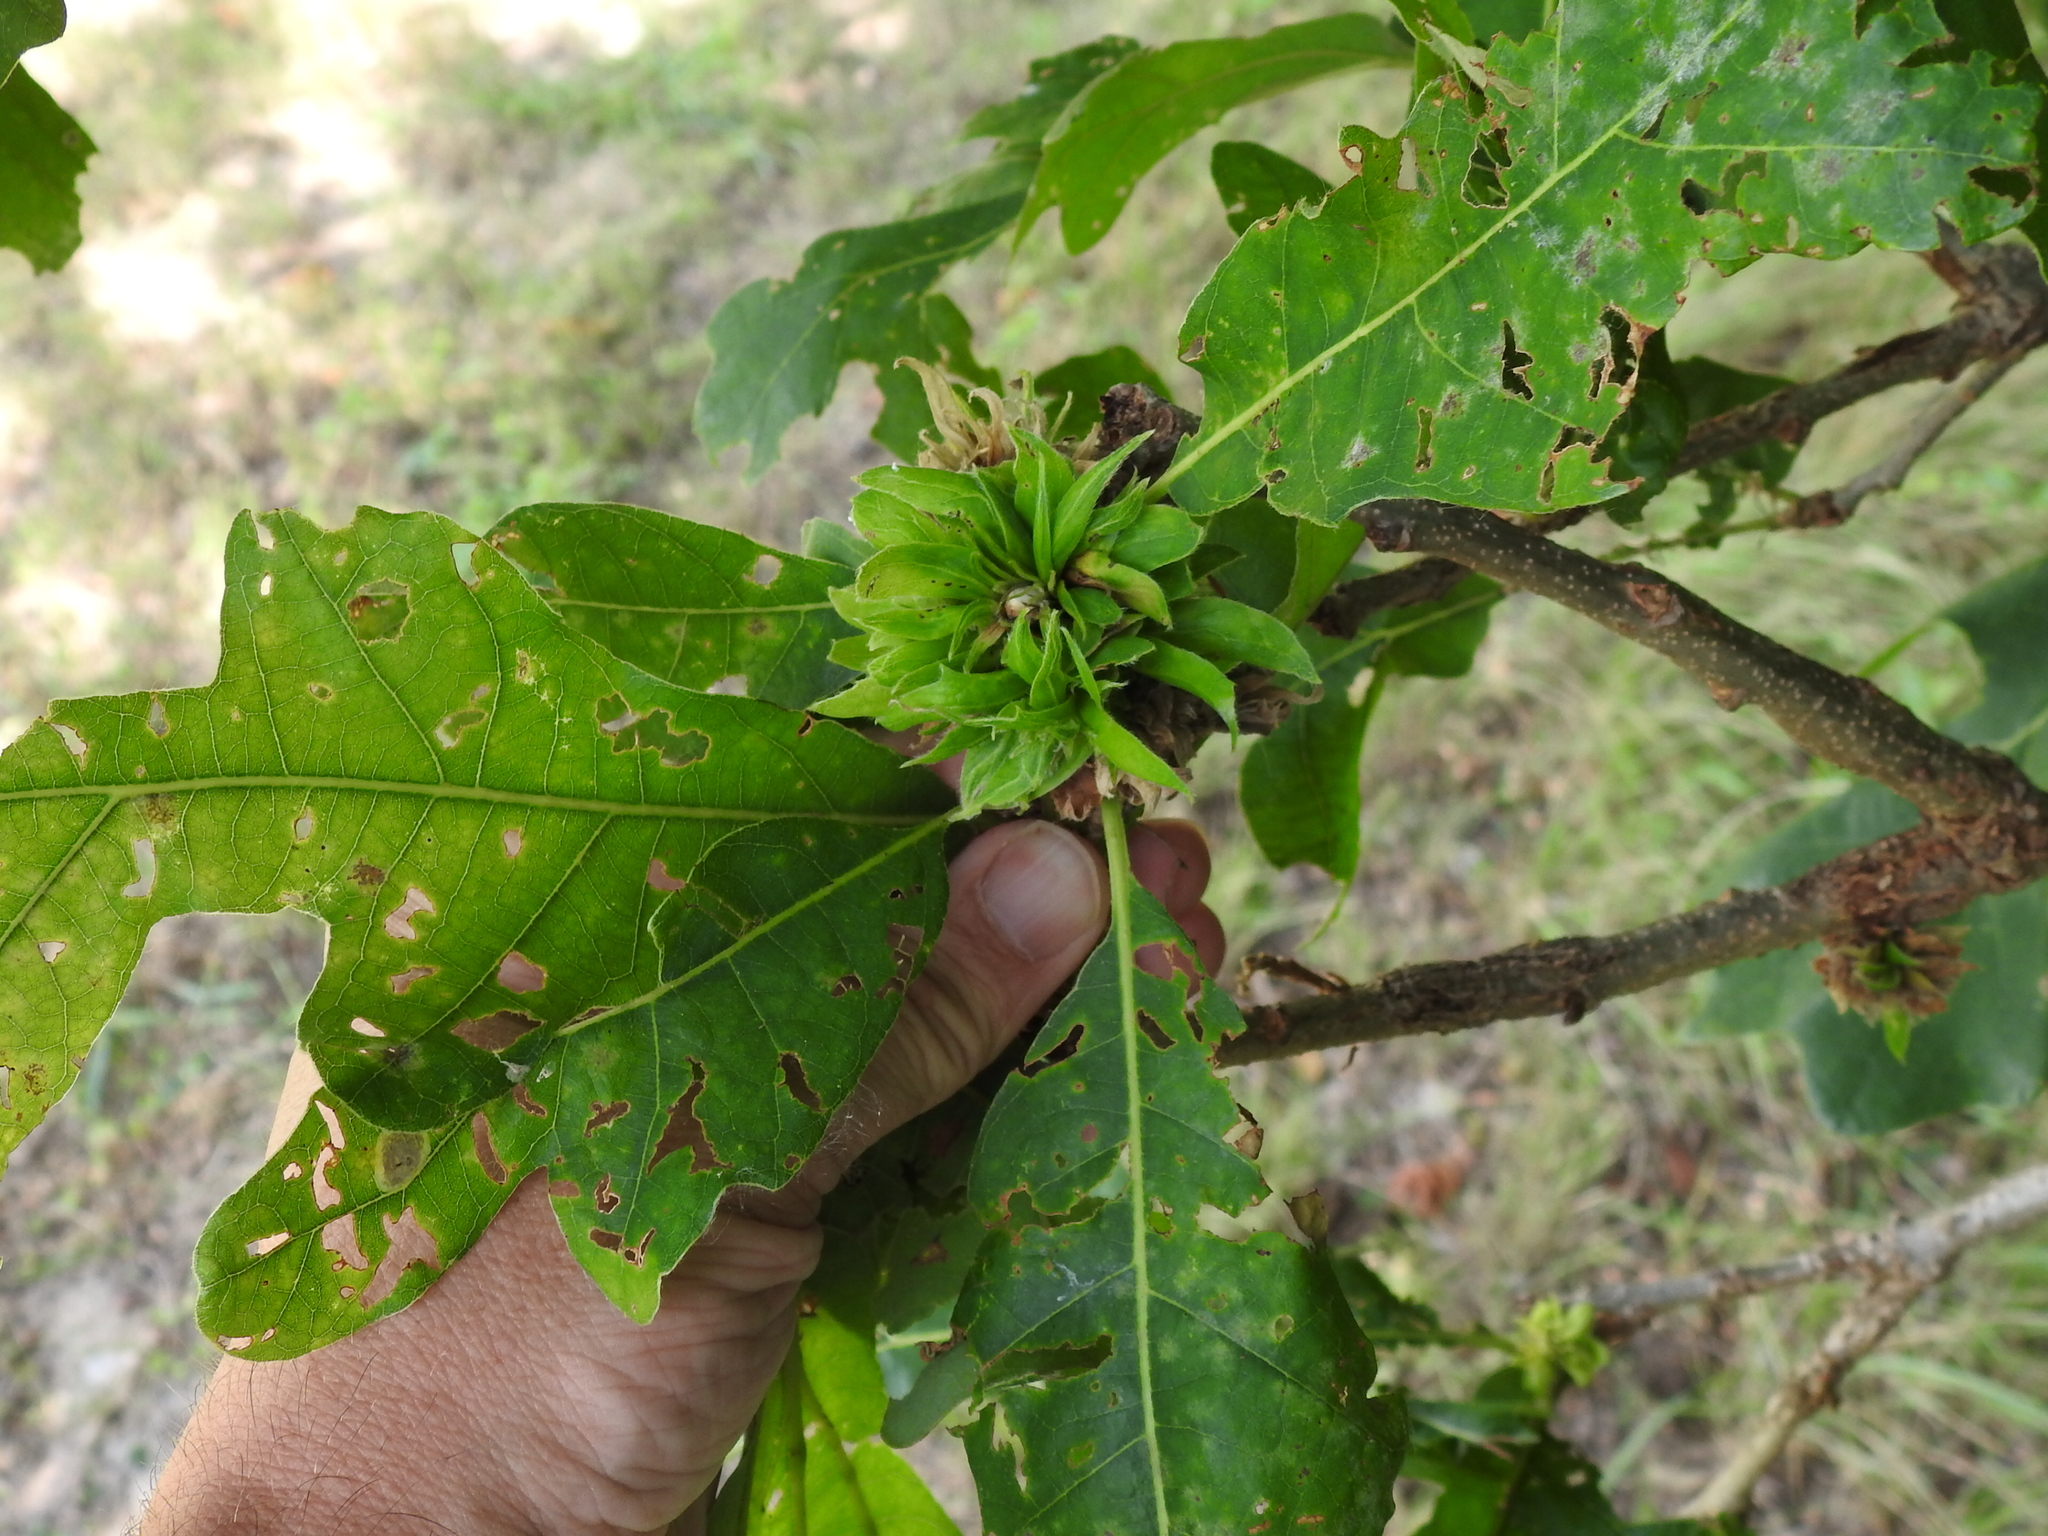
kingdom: Animalia
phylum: Arthropoda
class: Insecta
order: Hymenoptera
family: Cynipidae
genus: Andricus
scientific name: Andricus
